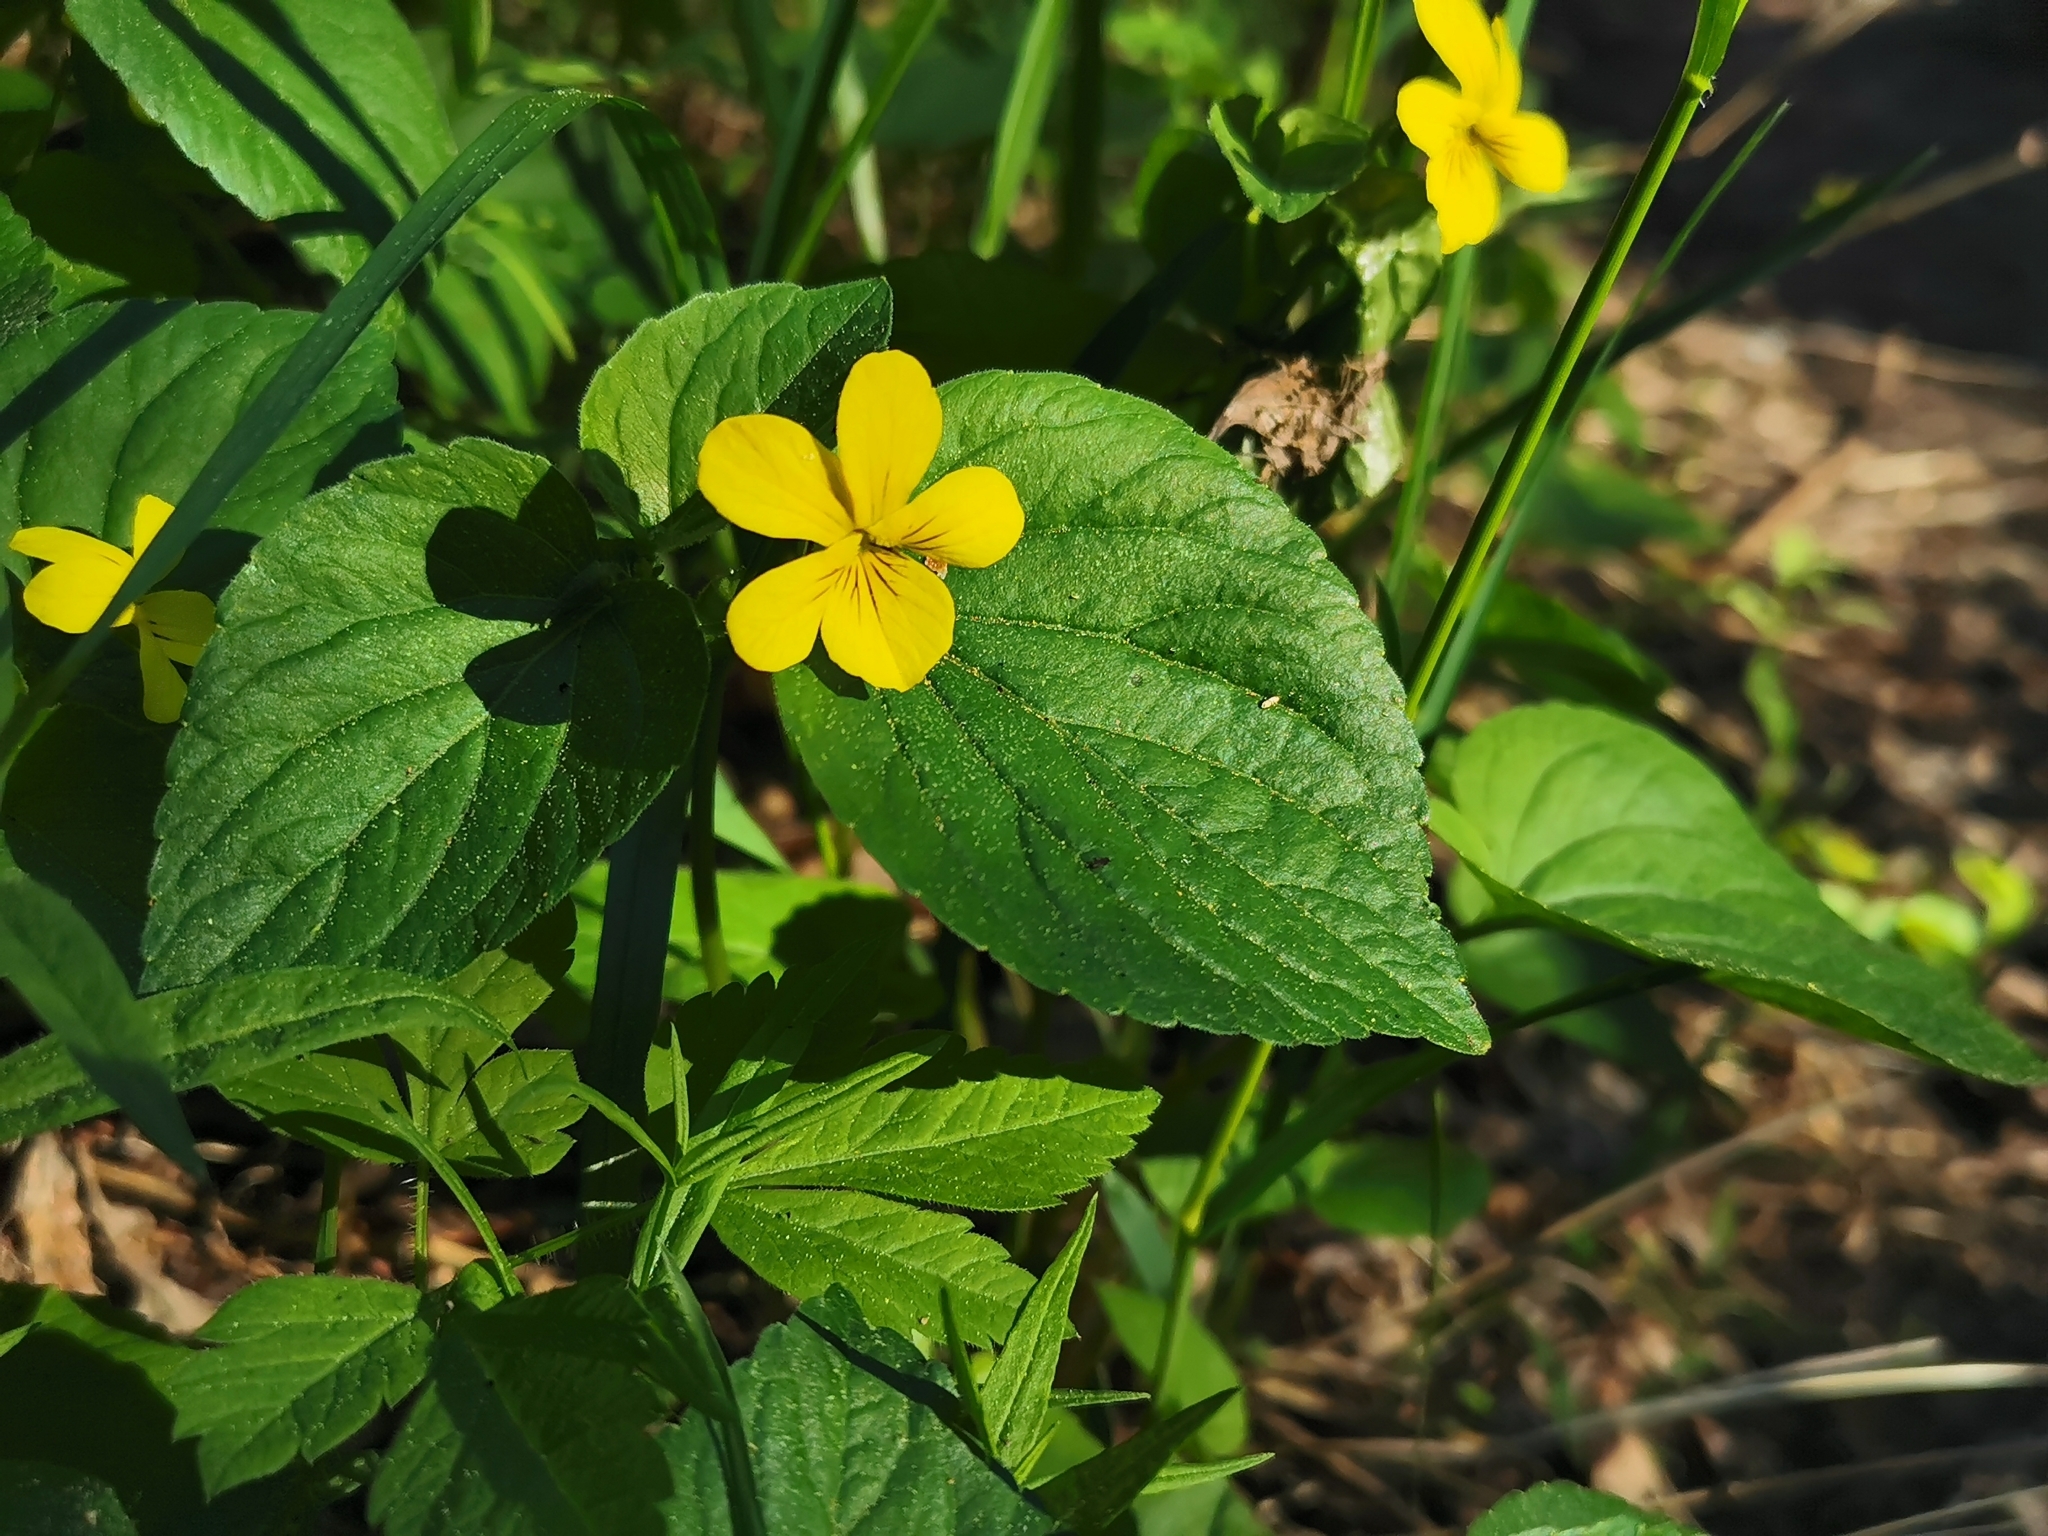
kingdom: Plantae
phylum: Tracheophyta
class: Magnoliopsida
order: Malpighiales
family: Violaceae
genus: Viola
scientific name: Viola glabella
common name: Stream violet
